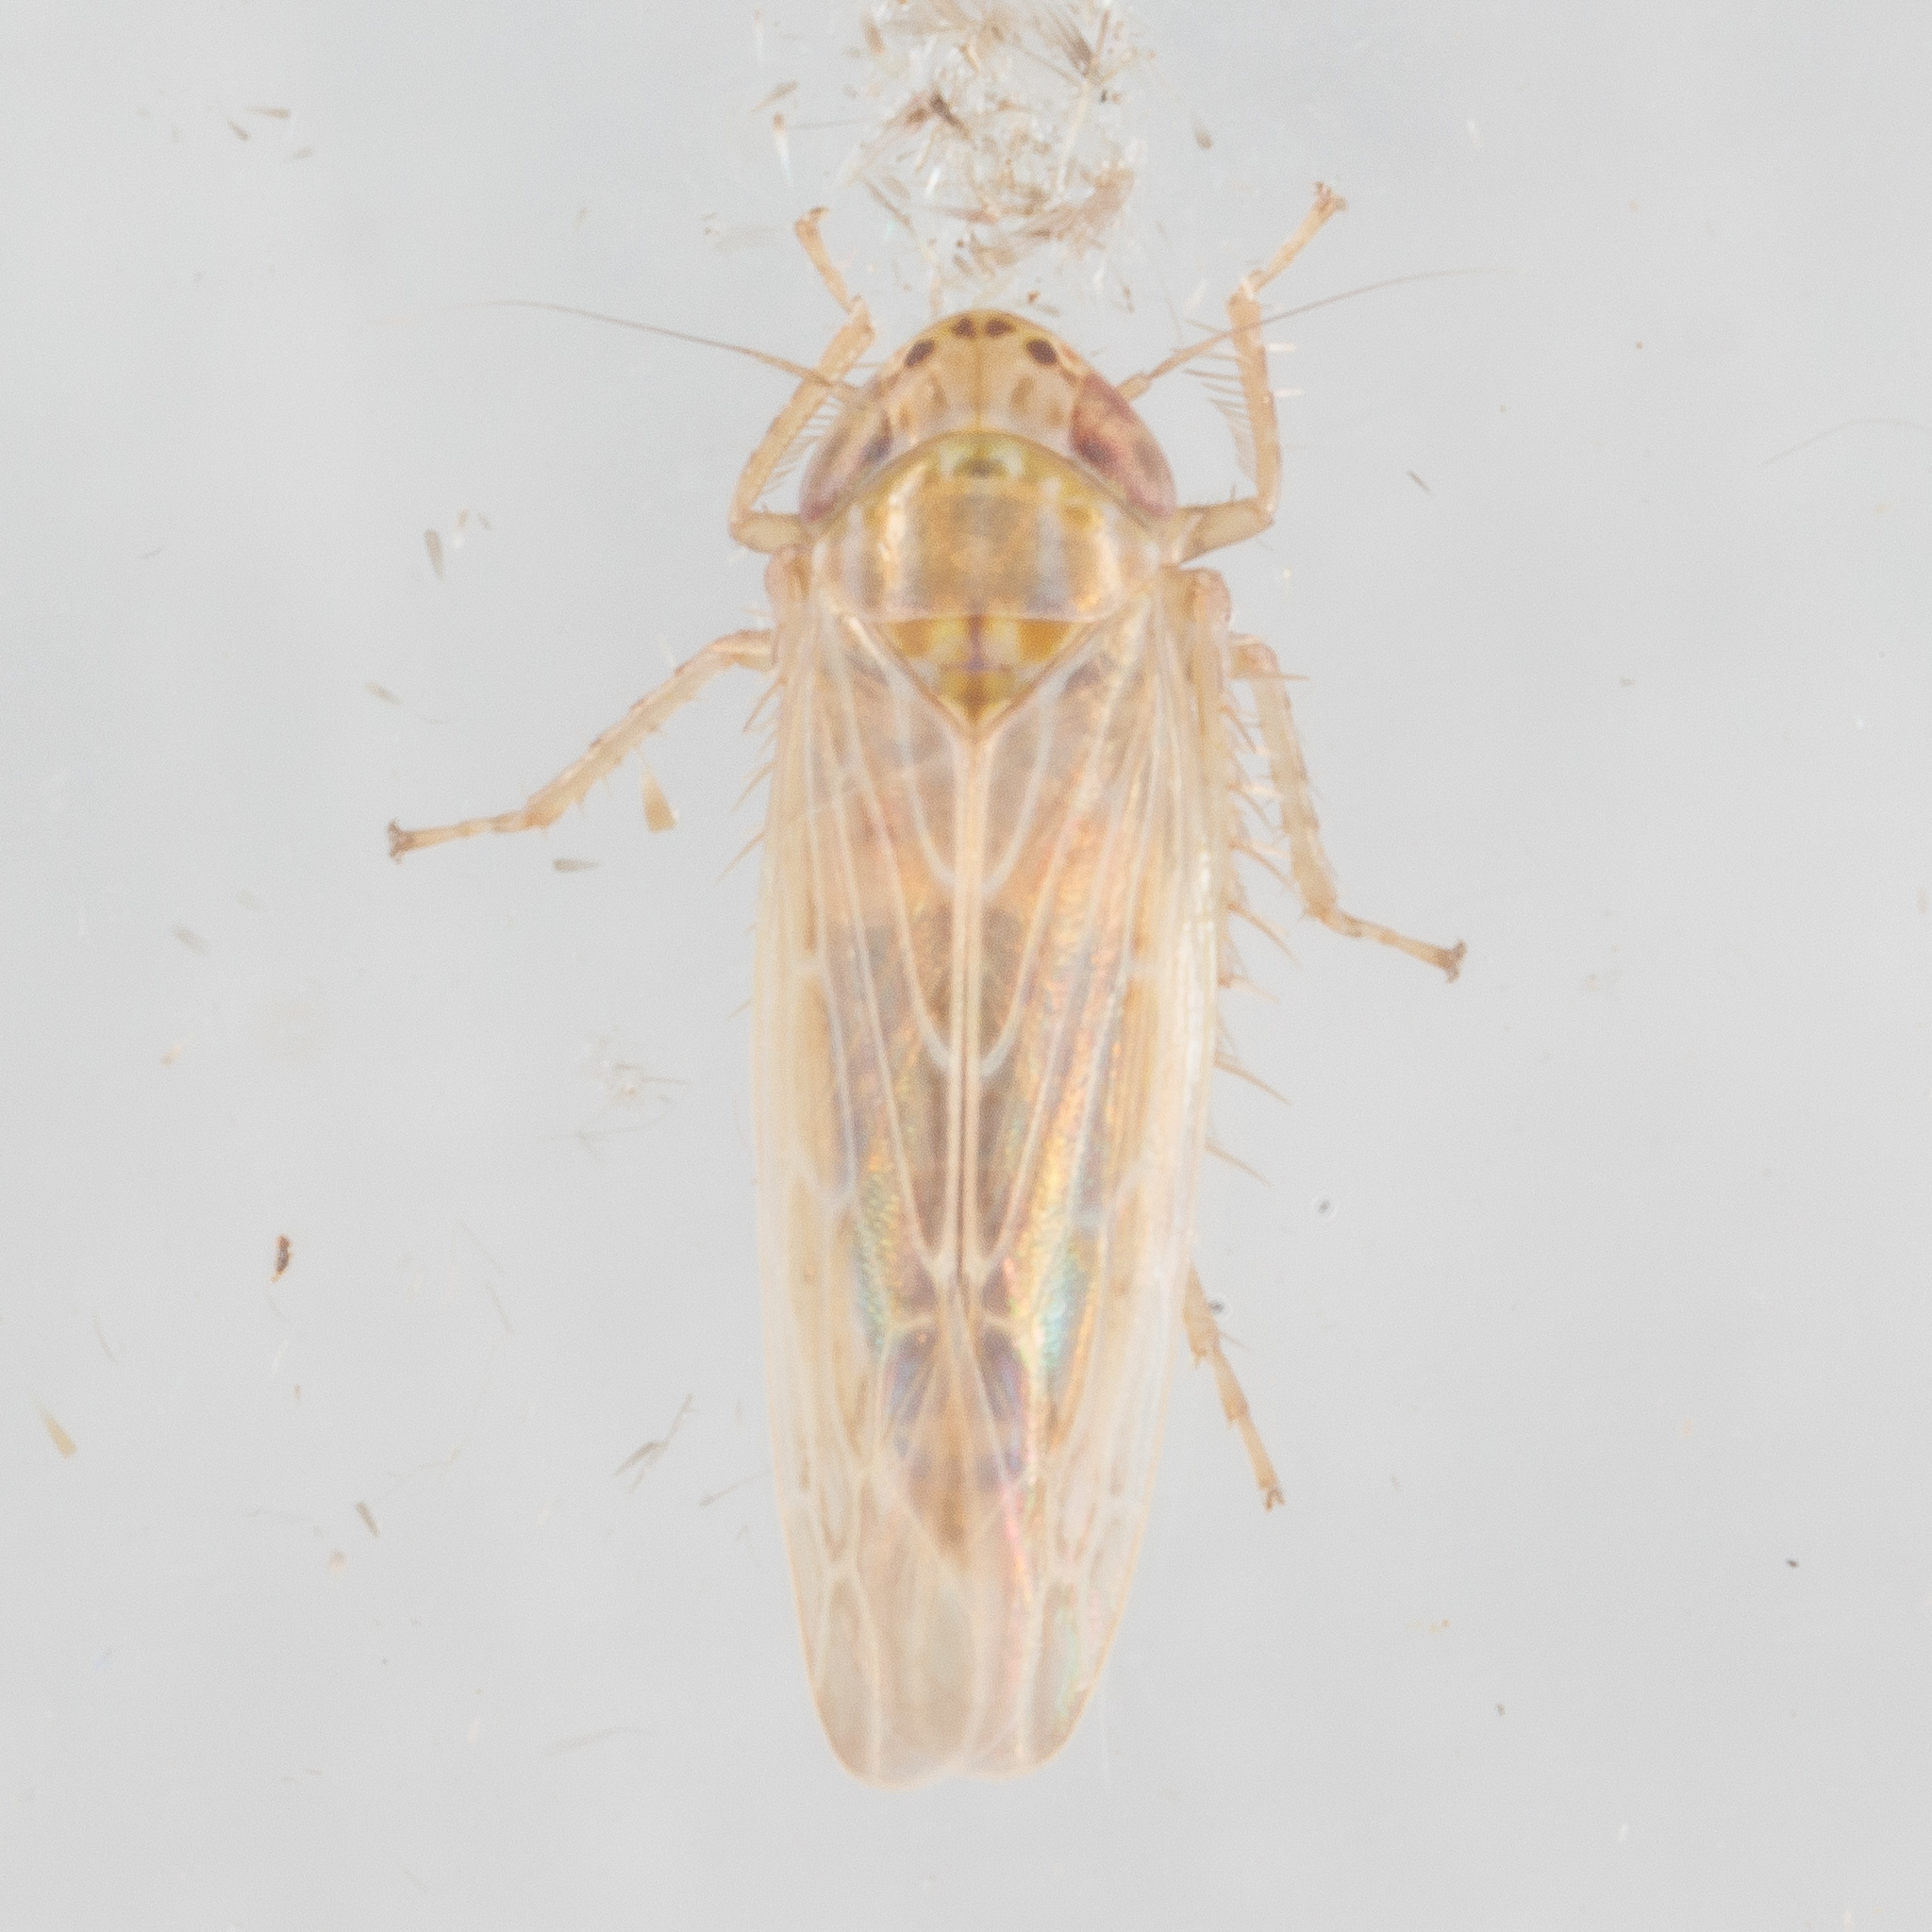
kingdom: Animalia
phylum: Arthropoda
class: Insecta
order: Hemiptera
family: Cicadellidae
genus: Graminella
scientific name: Graminella sonora
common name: Lesser lawn leafhopper
